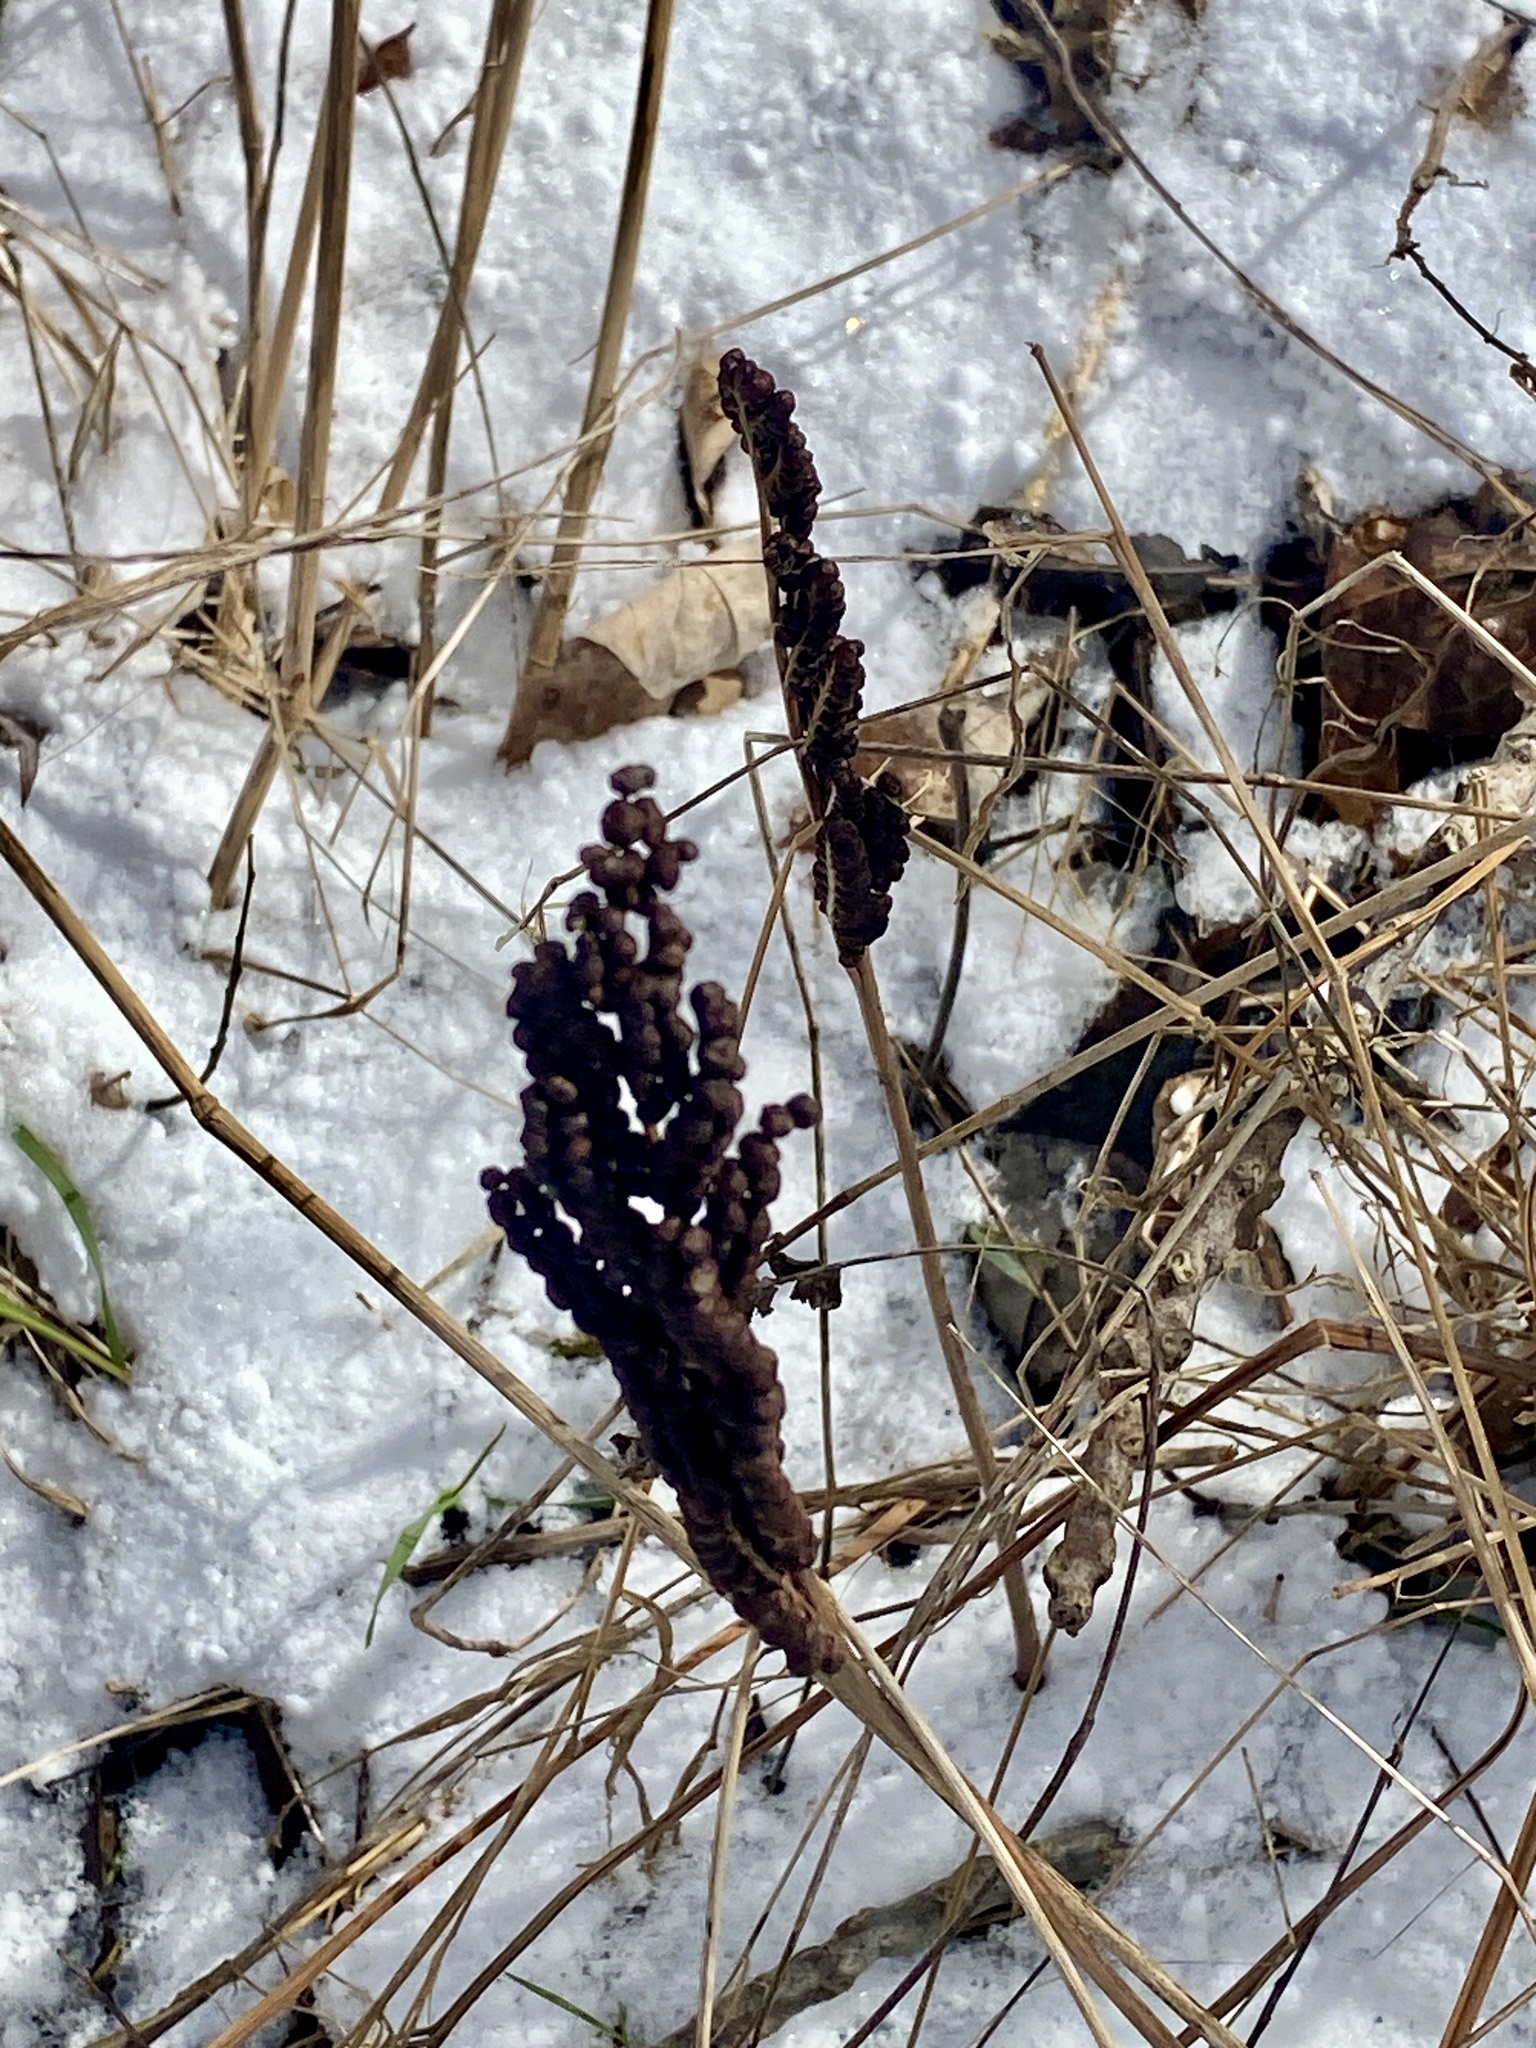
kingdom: Plantae
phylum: Tracheophyta
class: Polypodiopsida
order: Polypodiales
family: Onocleaceae
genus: Onoclea
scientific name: Onoclea sensibilis
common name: Sensitive fern
